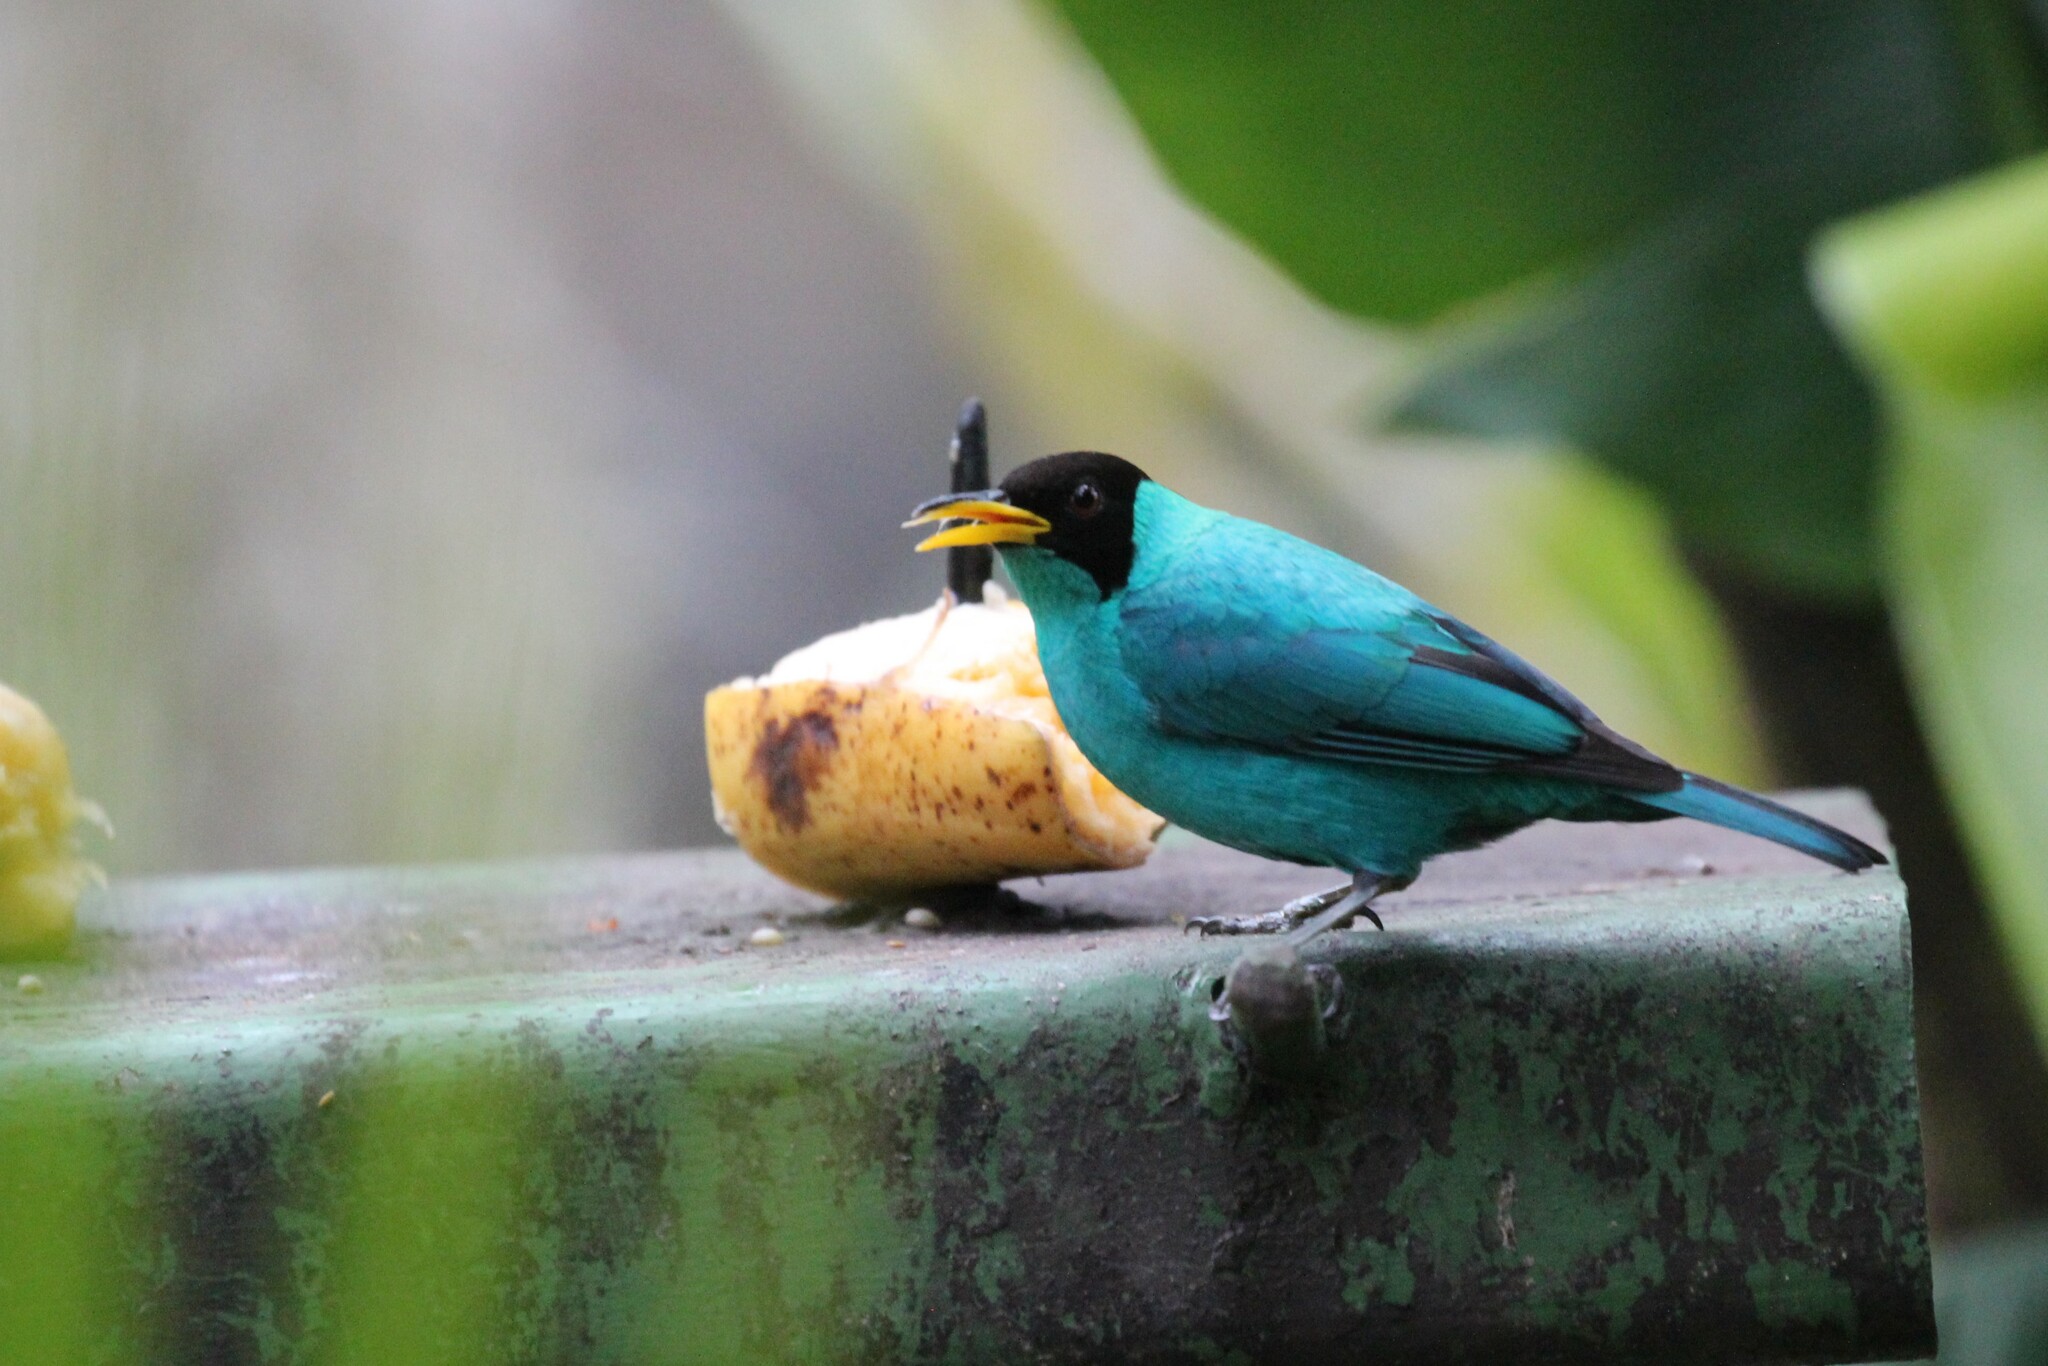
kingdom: Animalia
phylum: Chordata
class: Aves
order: Passeriformes
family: Thraupidae
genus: Chlorophanes
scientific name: Chlorophanes spiza
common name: Green honeycreeper
